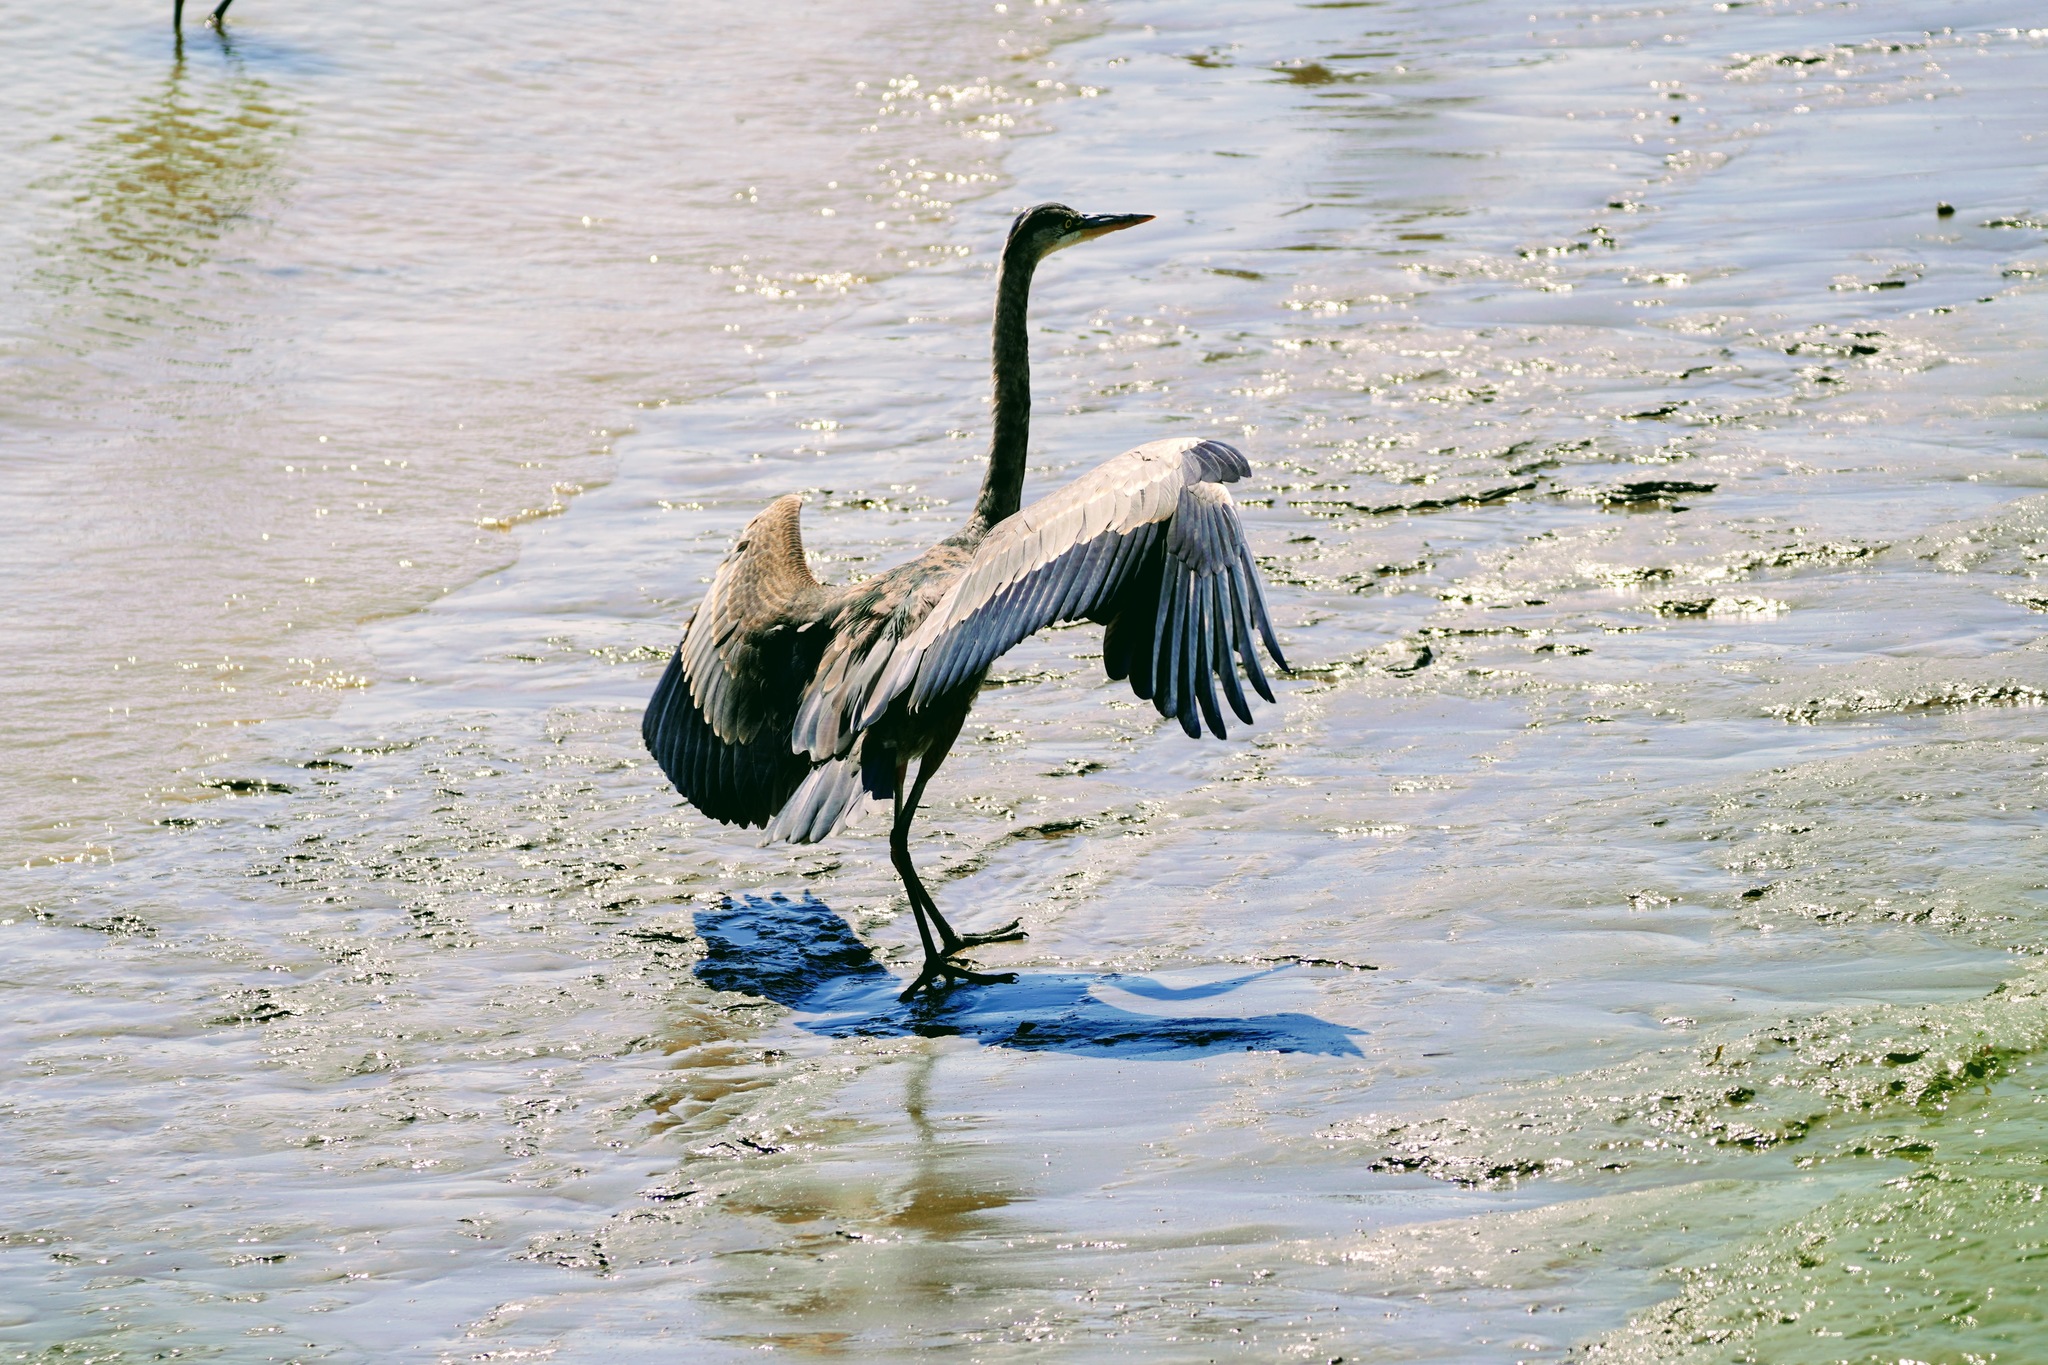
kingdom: Animalia
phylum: Chordata
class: Aves
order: Pelecaniformes
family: Ardeidae
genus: Ardea
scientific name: Ardea herodias
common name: Great blue heron
